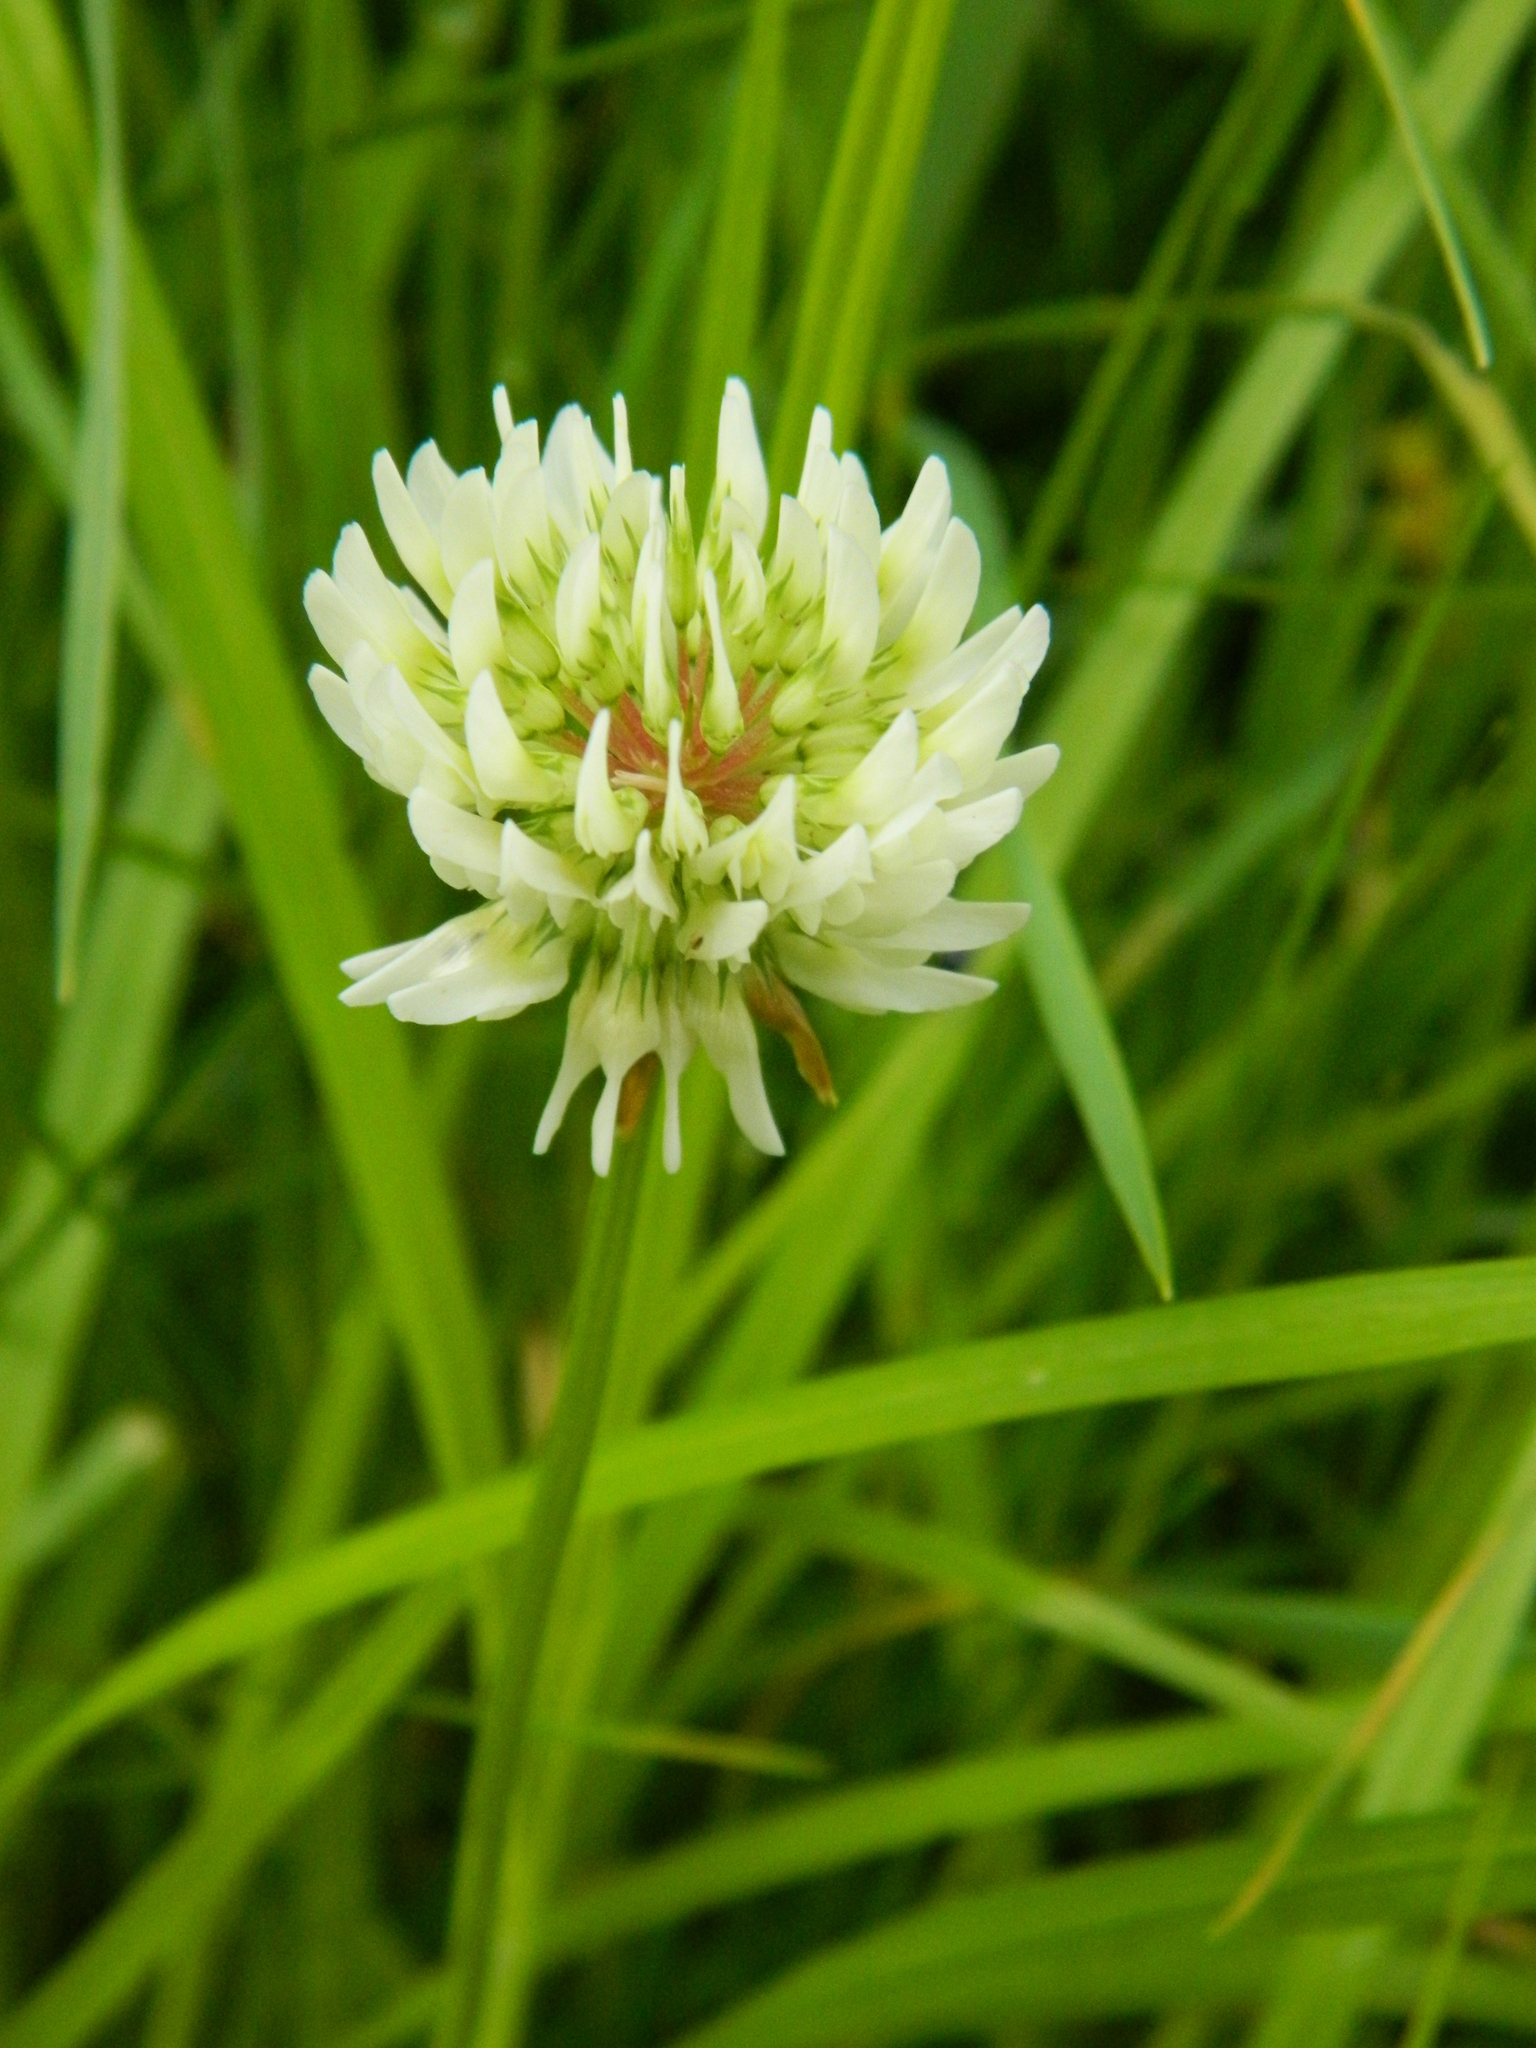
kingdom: Plantae
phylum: Tracheophyta
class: Magnoliopsida
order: Fabales
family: Fabaceae
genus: Trifolium
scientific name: Trifolium repens
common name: White clover
